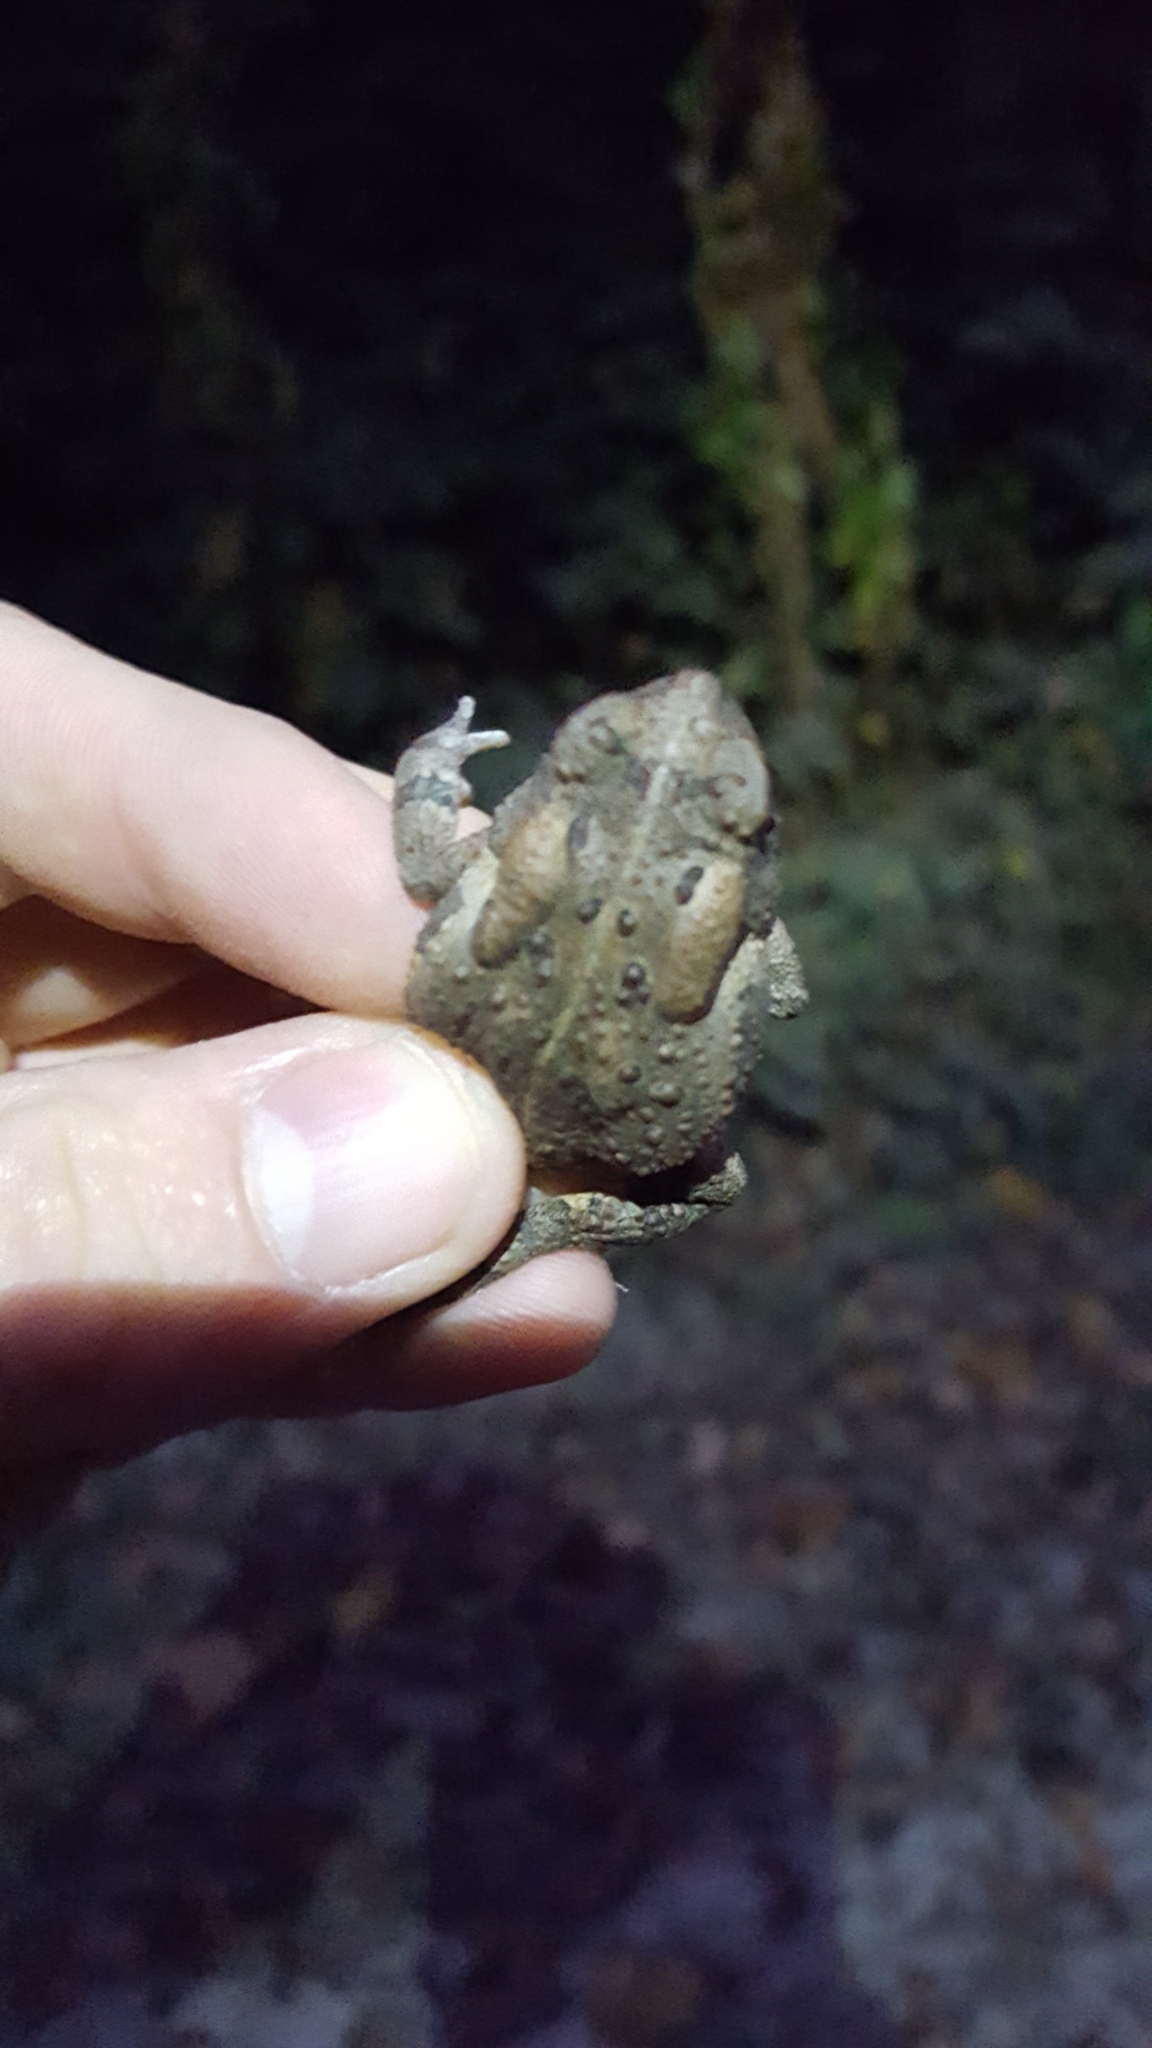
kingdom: Animalia
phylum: Chordata
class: Amphibia
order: Anura
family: Bufonidae
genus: Anaxyrus
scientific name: Anaxyrus americanus
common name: American toad
